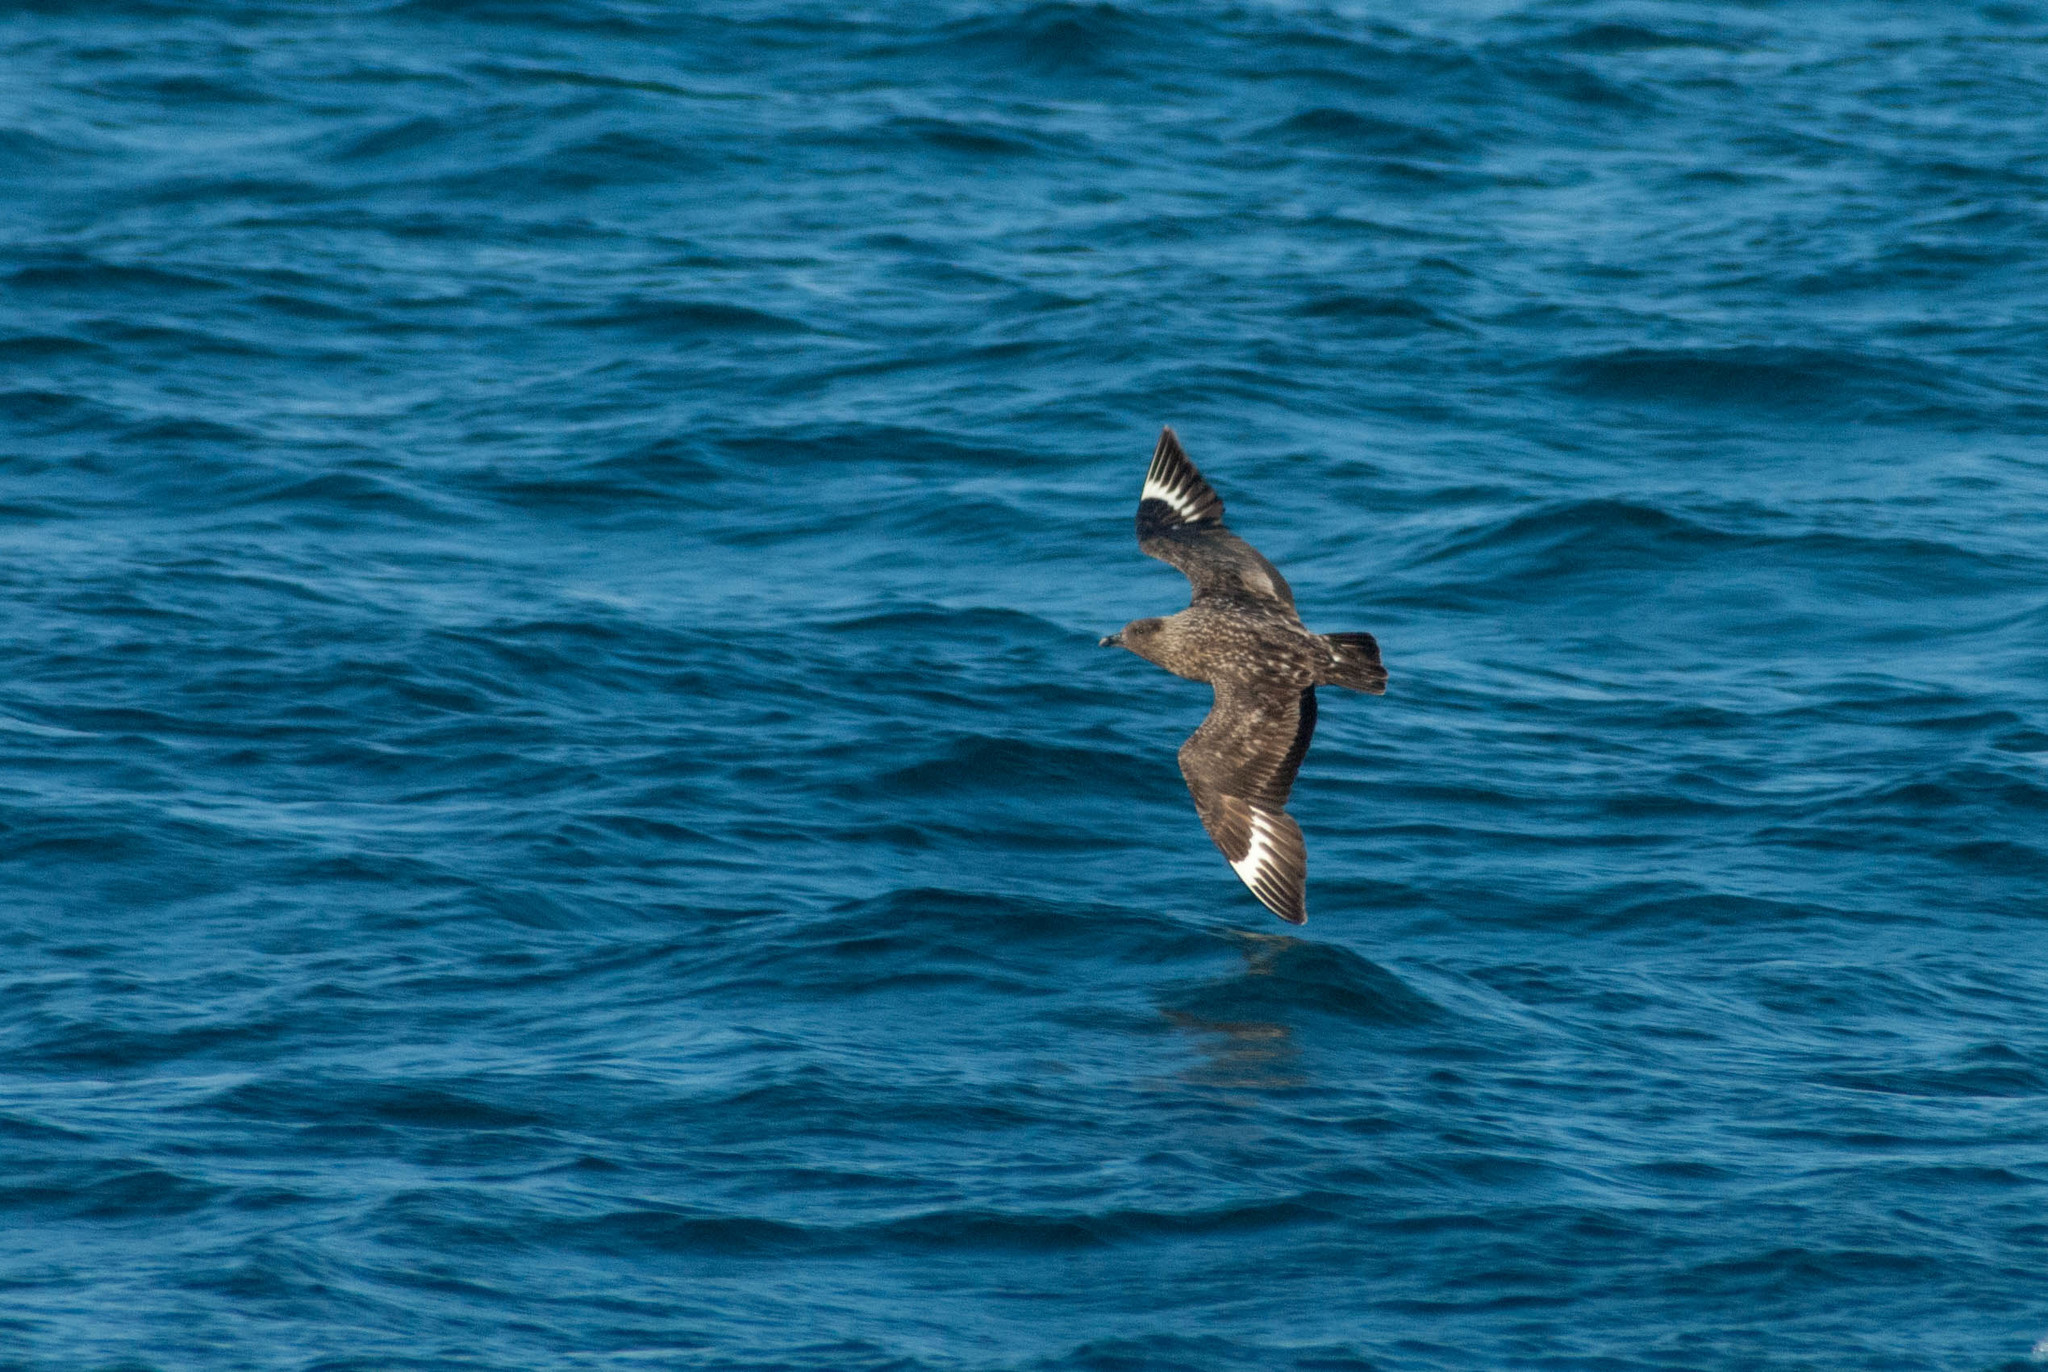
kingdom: Animalia
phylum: Chordata
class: Aves
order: Charadriiformes
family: Stercorariidae
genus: Stercorarius
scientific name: Stercorarius skua
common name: Great skua
